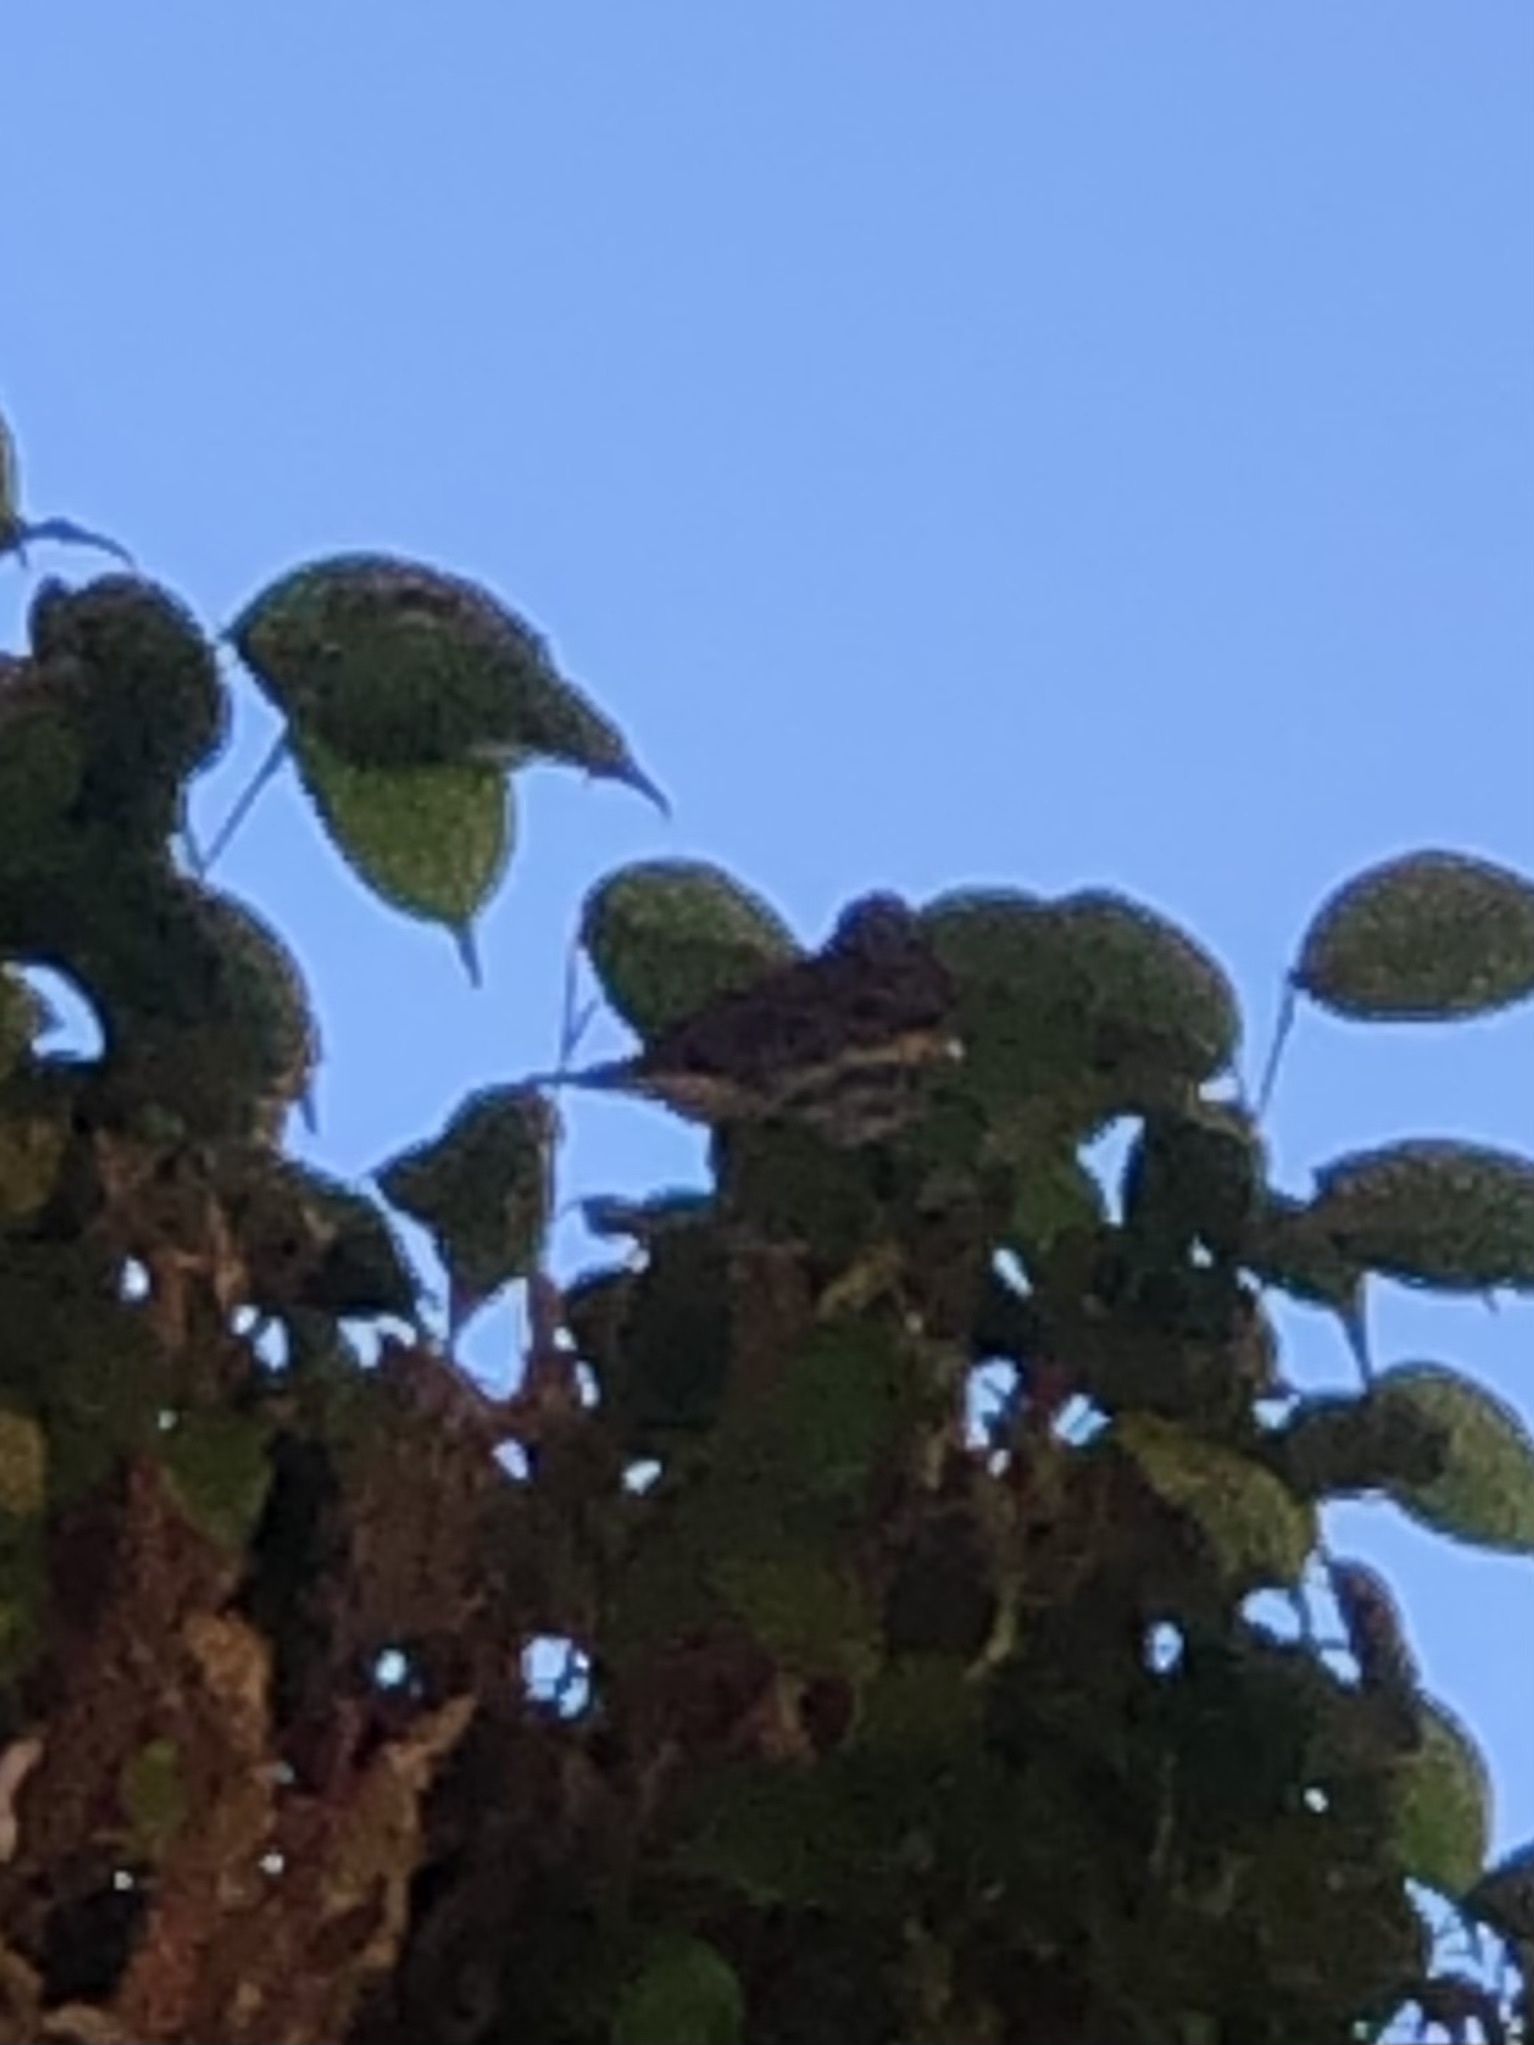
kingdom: Animalia
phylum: Chordata
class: Aves
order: Passeriformes
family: Parulidae
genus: Setophaga
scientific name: Setophaga auduboni
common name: Audubon's warbler
